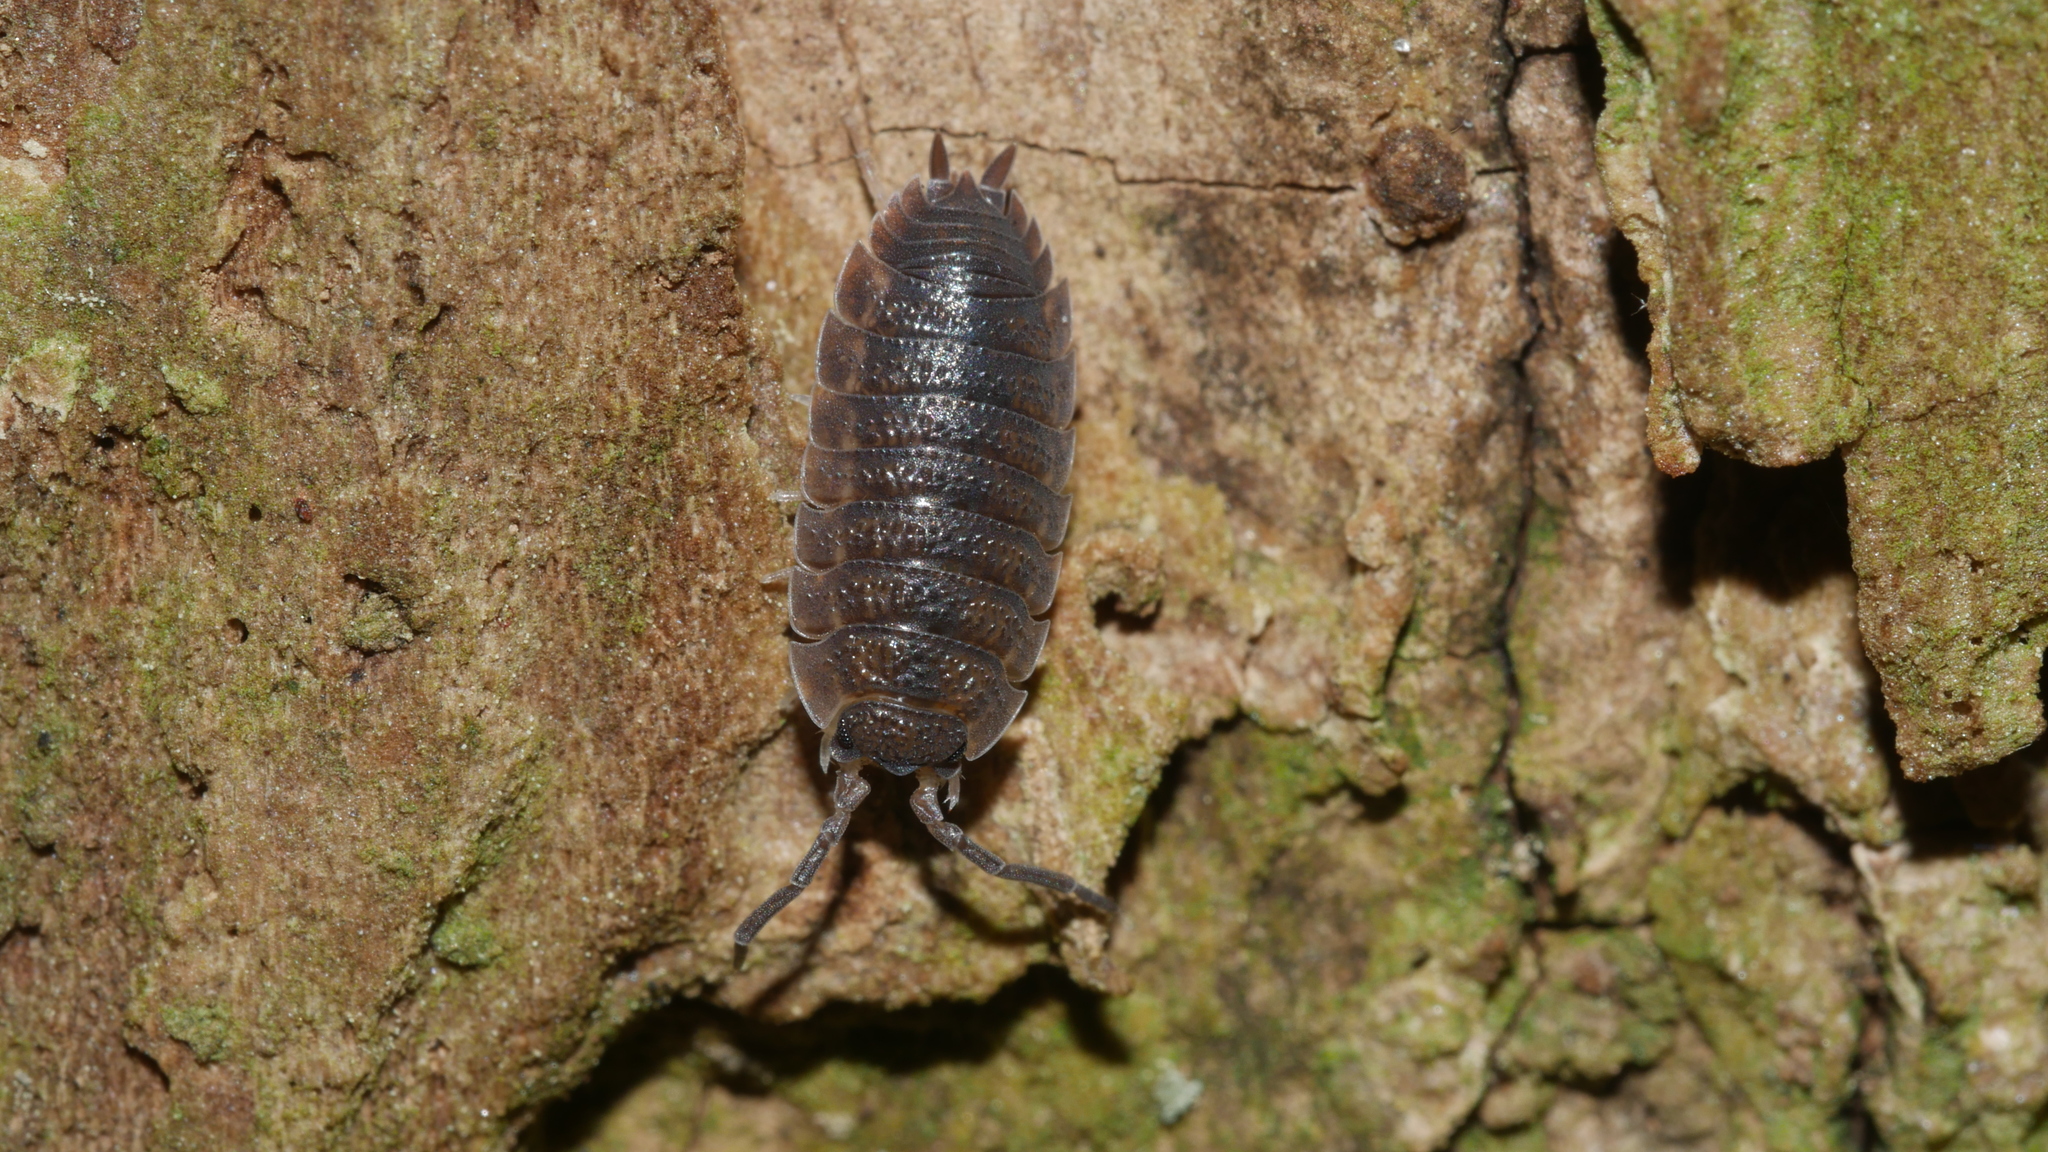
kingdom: Animalia
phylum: Arthropoda
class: Malacostraca
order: Isopoda
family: Porcellionidae
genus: Porcellio
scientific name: Porcellio scaber
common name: Common rough woodlouse
